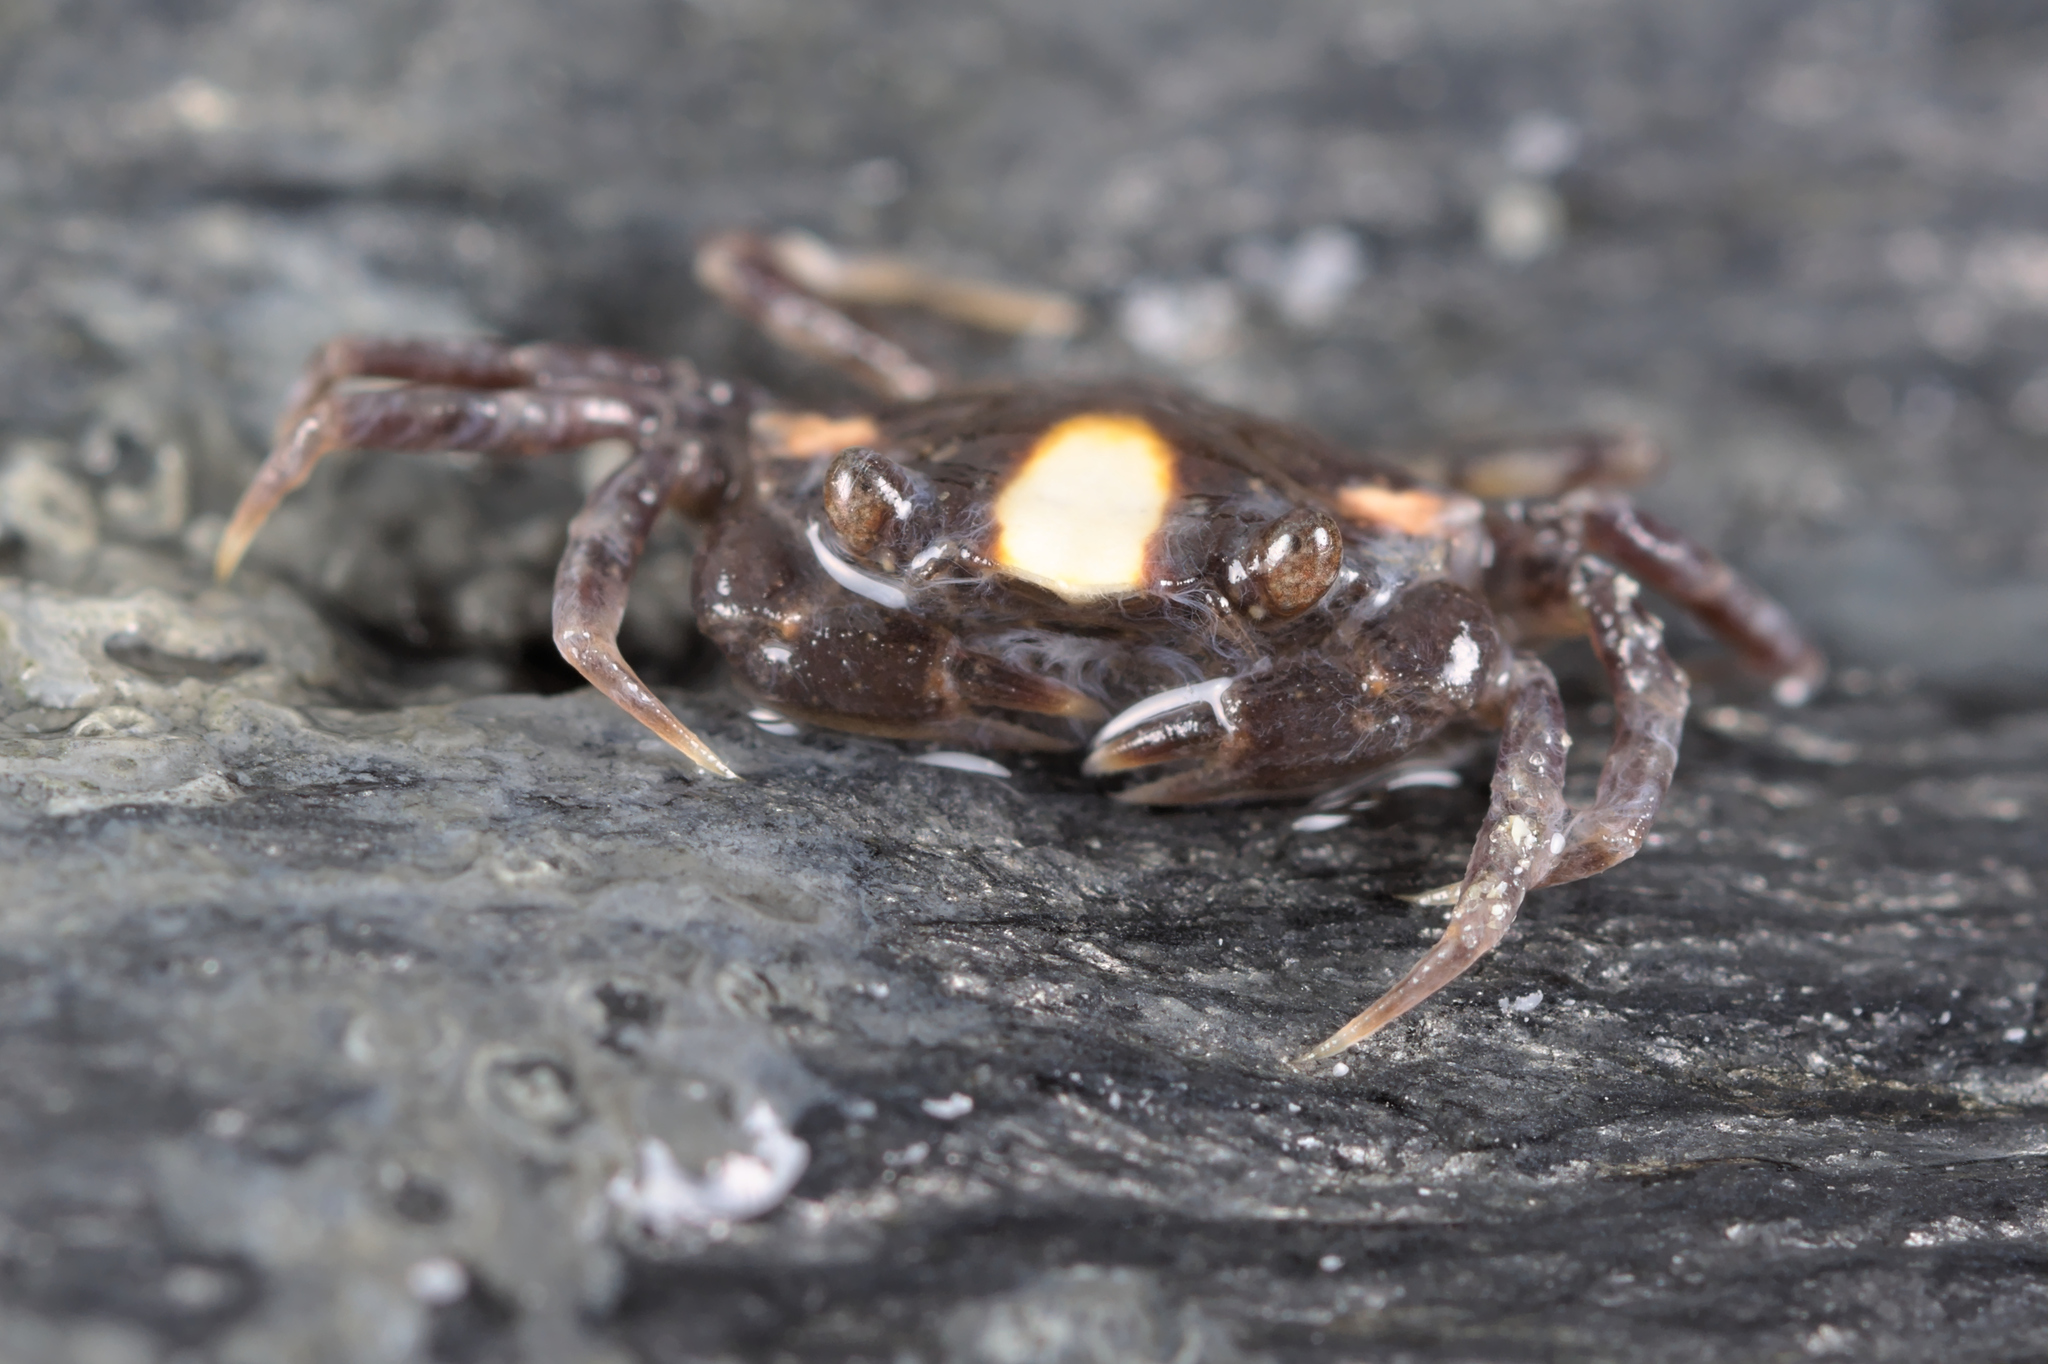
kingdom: Animalia
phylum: Arthropoda
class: Malacostraca
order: Decapoda
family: Carcinidae
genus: Carcinus
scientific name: Carcinus maenas
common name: European green crab
